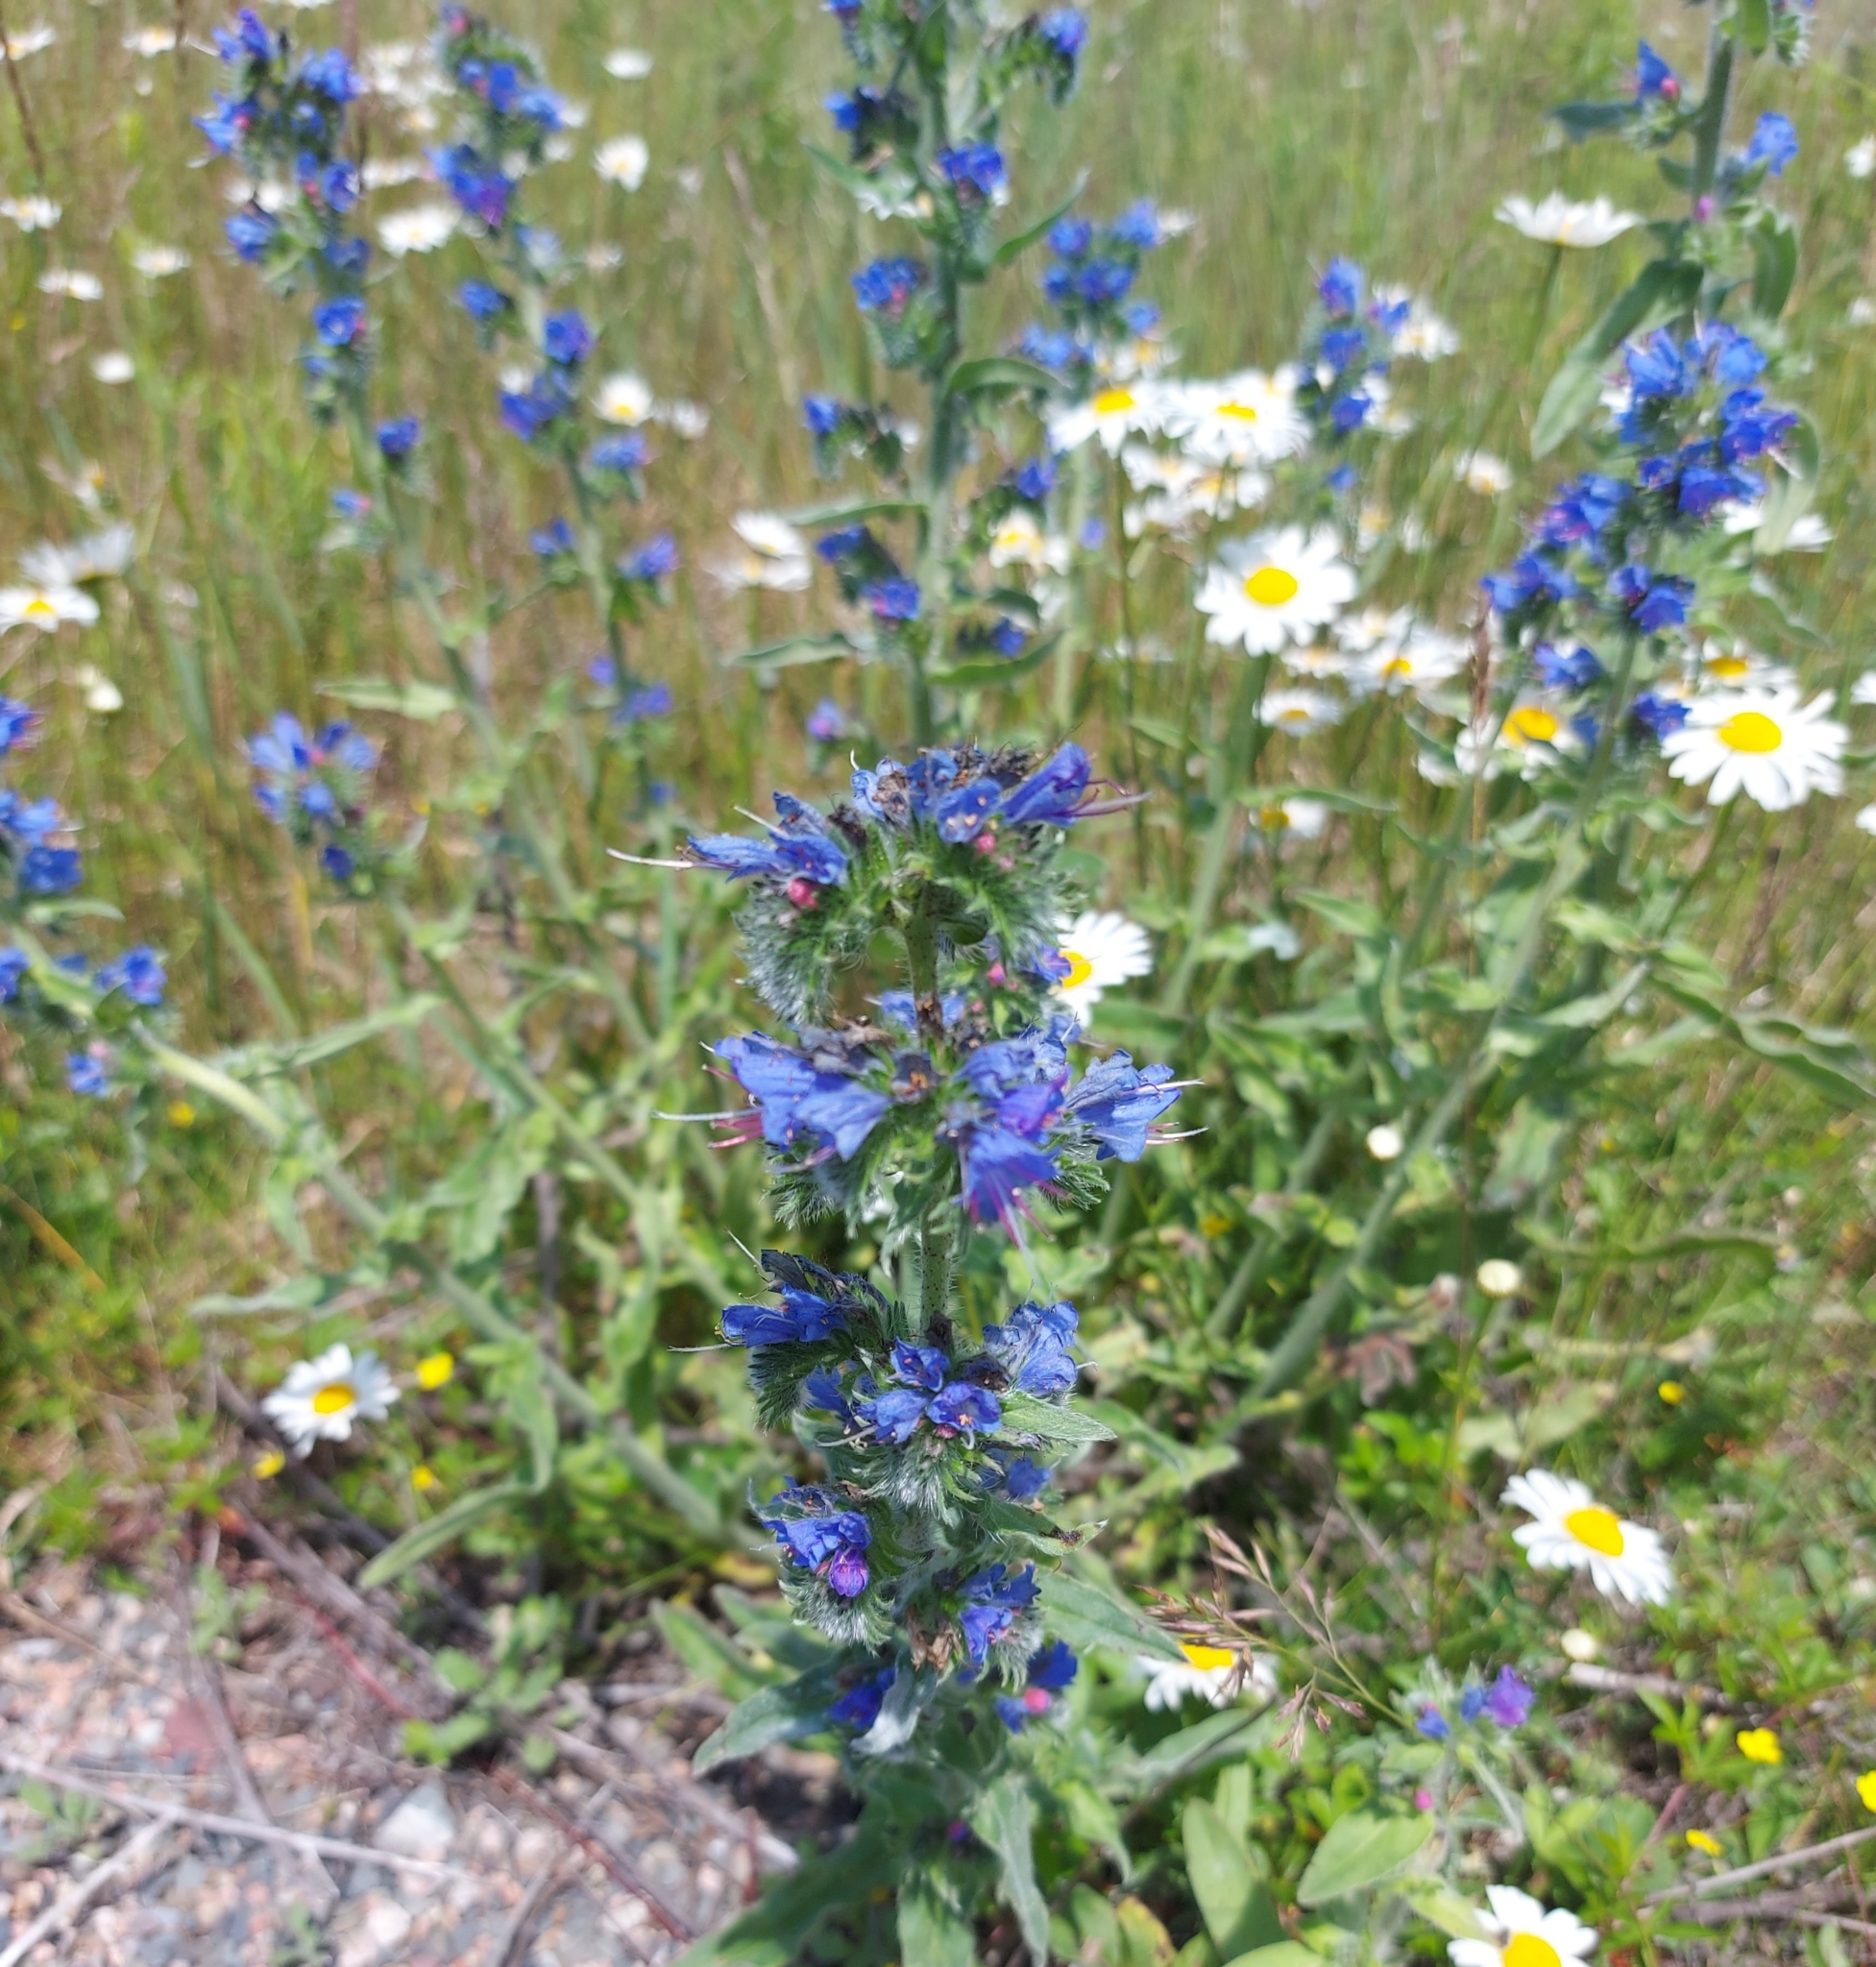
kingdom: Plantae
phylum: Tracheophyta
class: Magnoliopsida
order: Boraginales
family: Boraginaceae
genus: Echium
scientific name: Echium vulgare
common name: Common viper's bugloss
